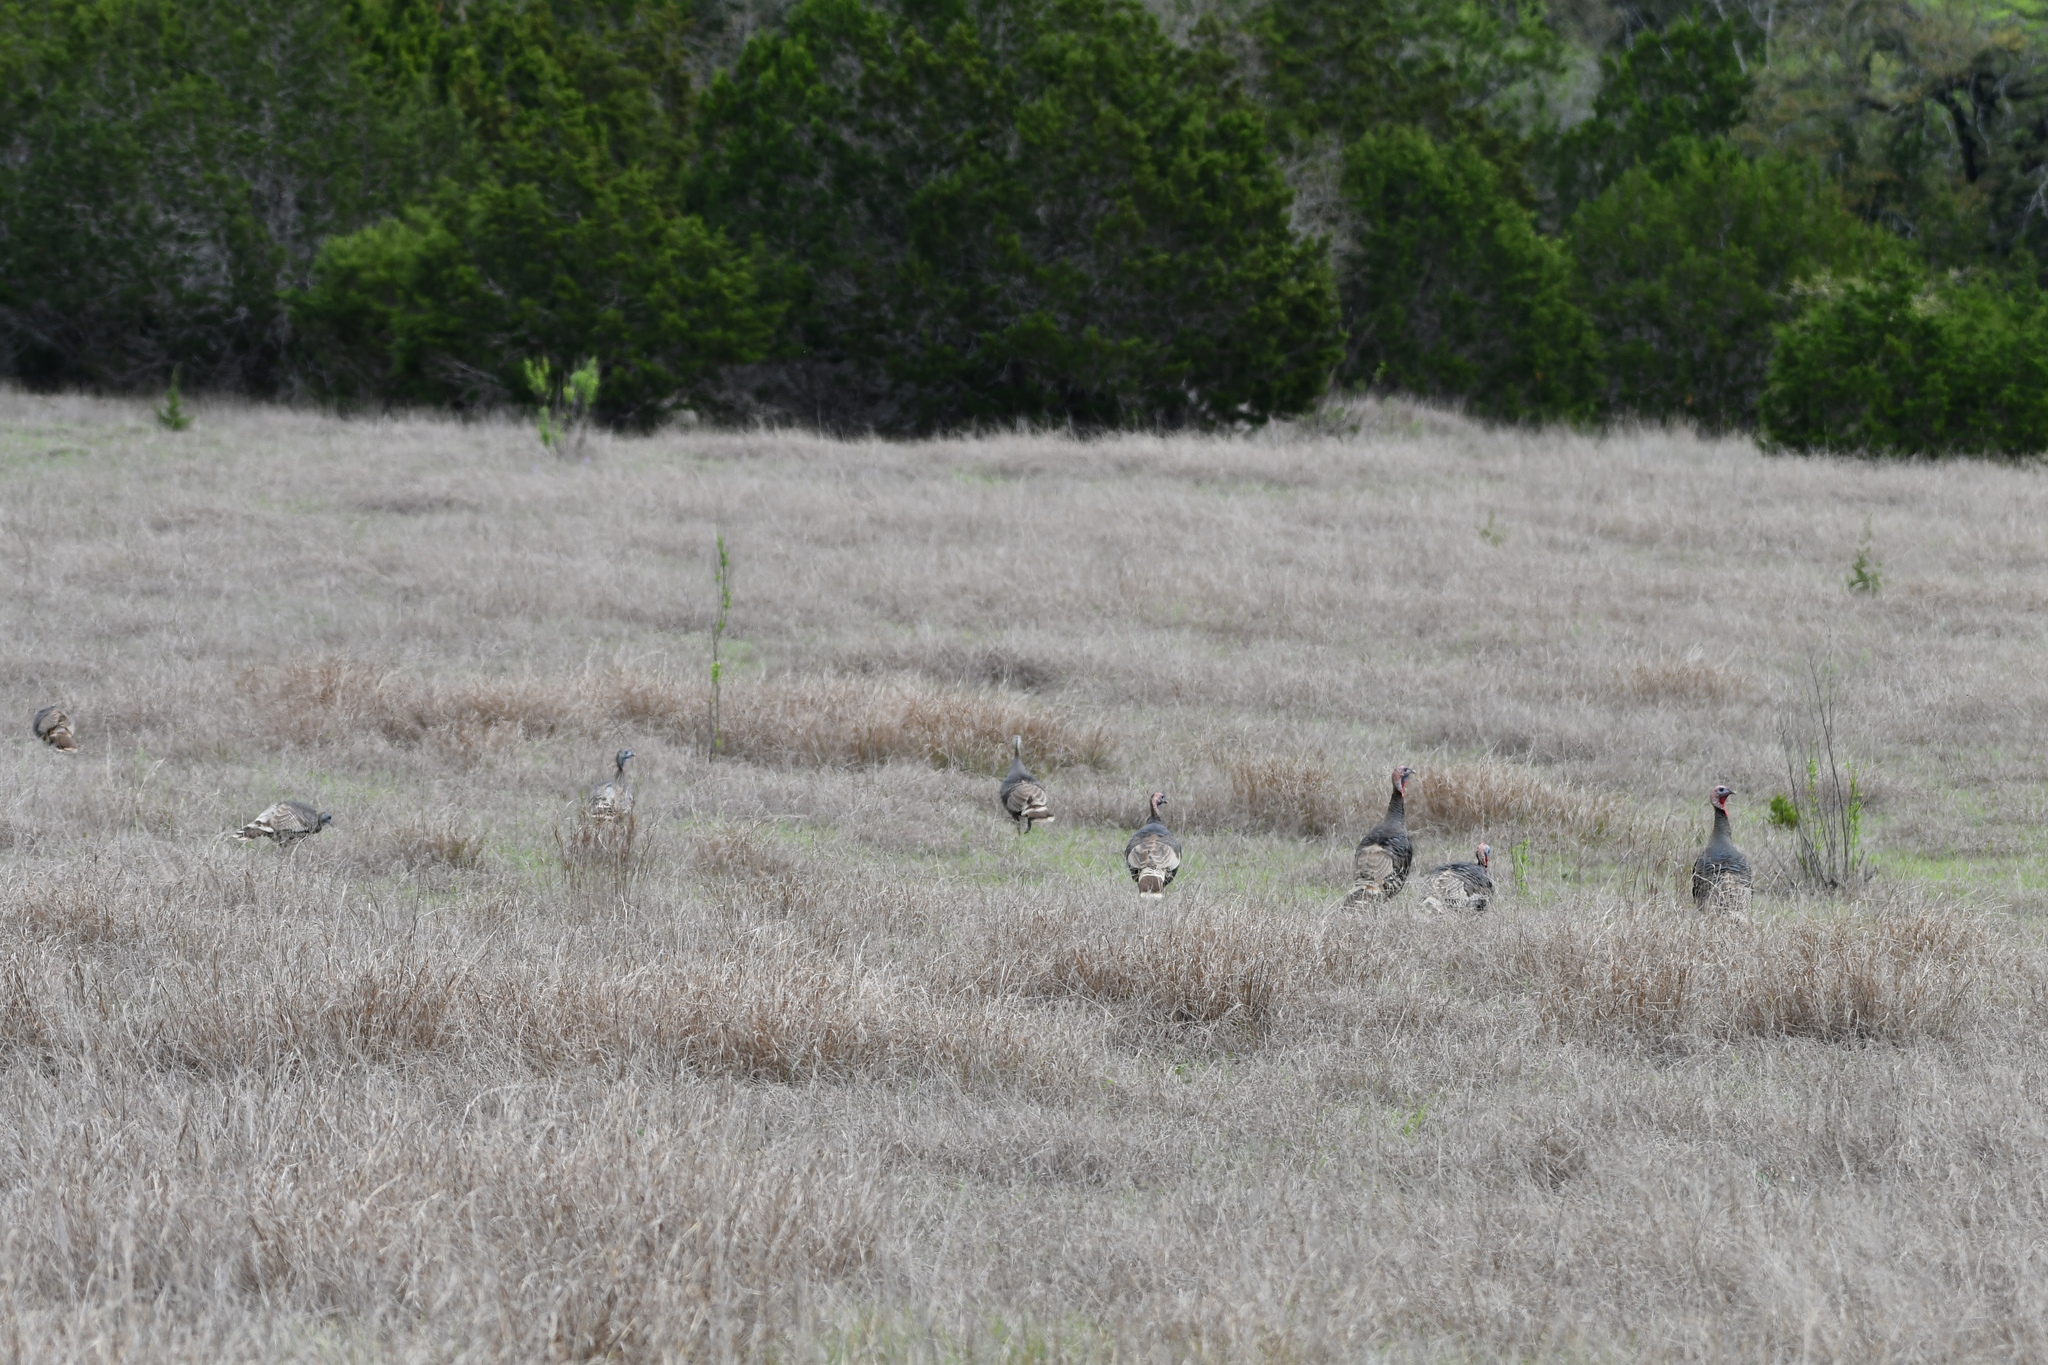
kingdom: Animalia
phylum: Chordata
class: Aves
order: Galliformes
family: Phasianidae
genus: Meleagris
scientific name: Meleagris gallopavo
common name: Wild turkey
